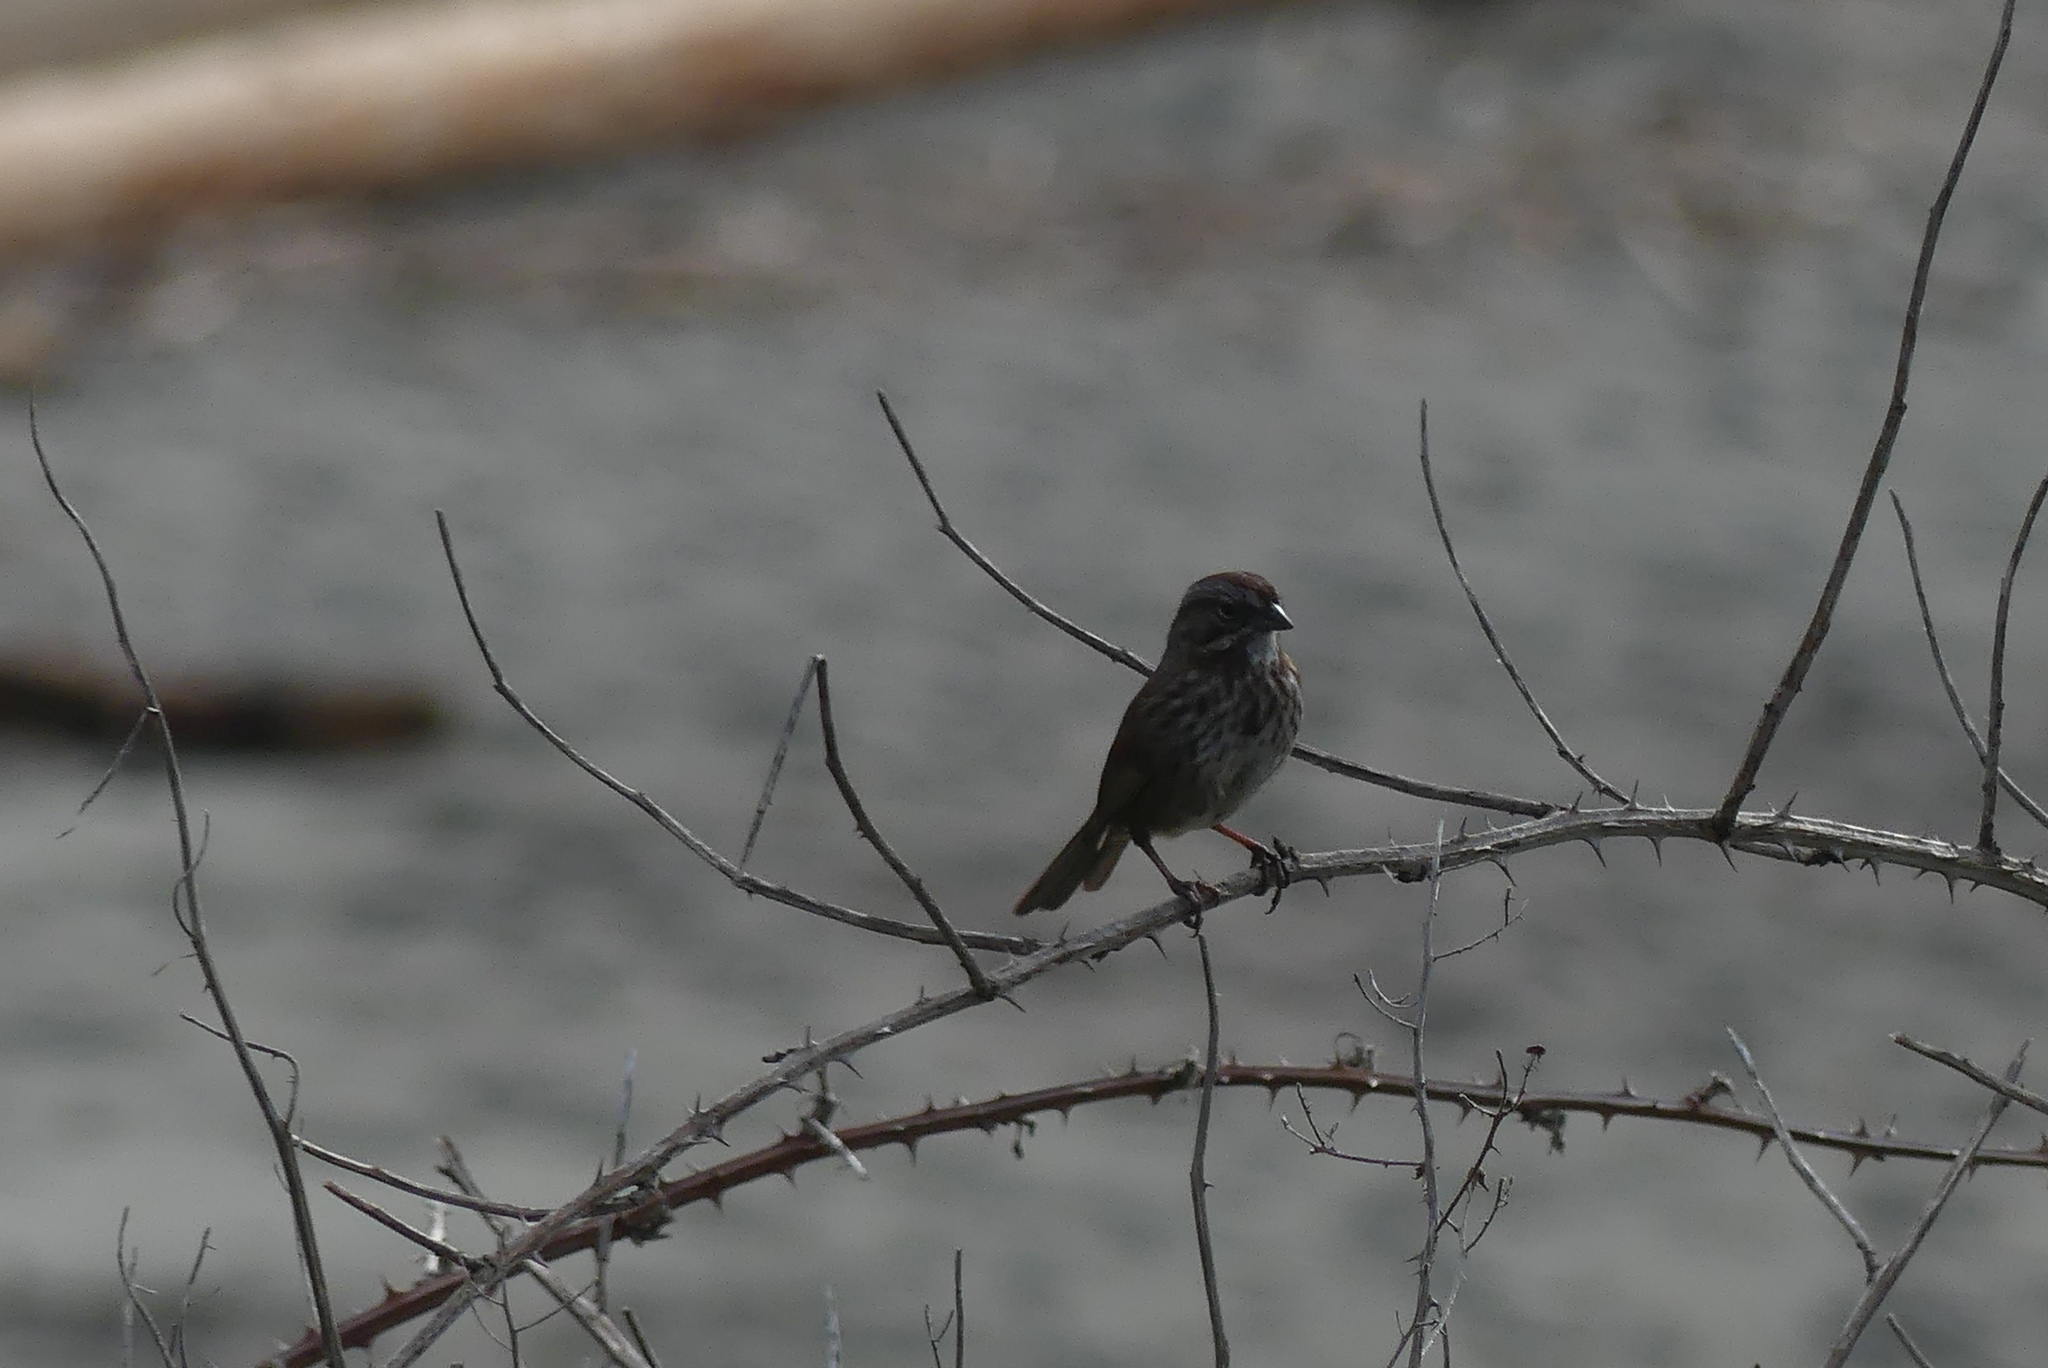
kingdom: Animalia
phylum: Chordata
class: Aves
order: Passeriformes
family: Passerellidae
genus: Melospiza
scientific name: Melospiza melodia
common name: Song sparrow
